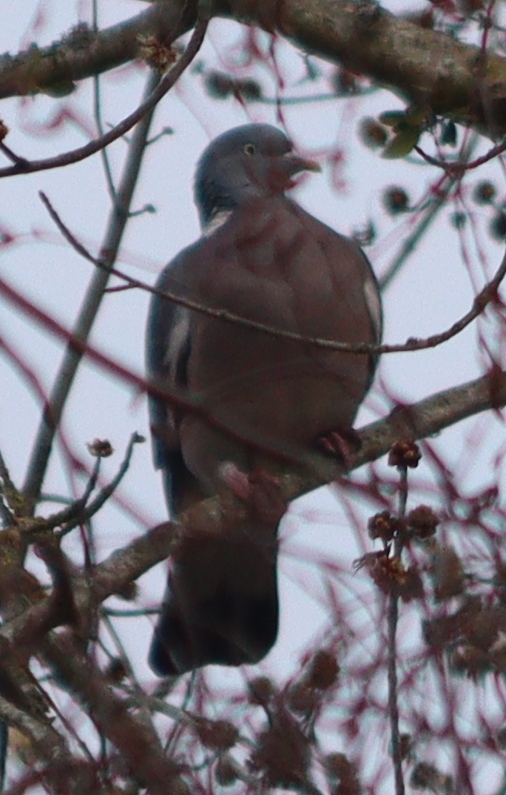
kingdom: Animalia
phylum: Chordata
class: Aves
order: Columbiformes
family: Columbidae
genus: Columba
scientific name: Columba palumbus
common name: Common wood pigeon
